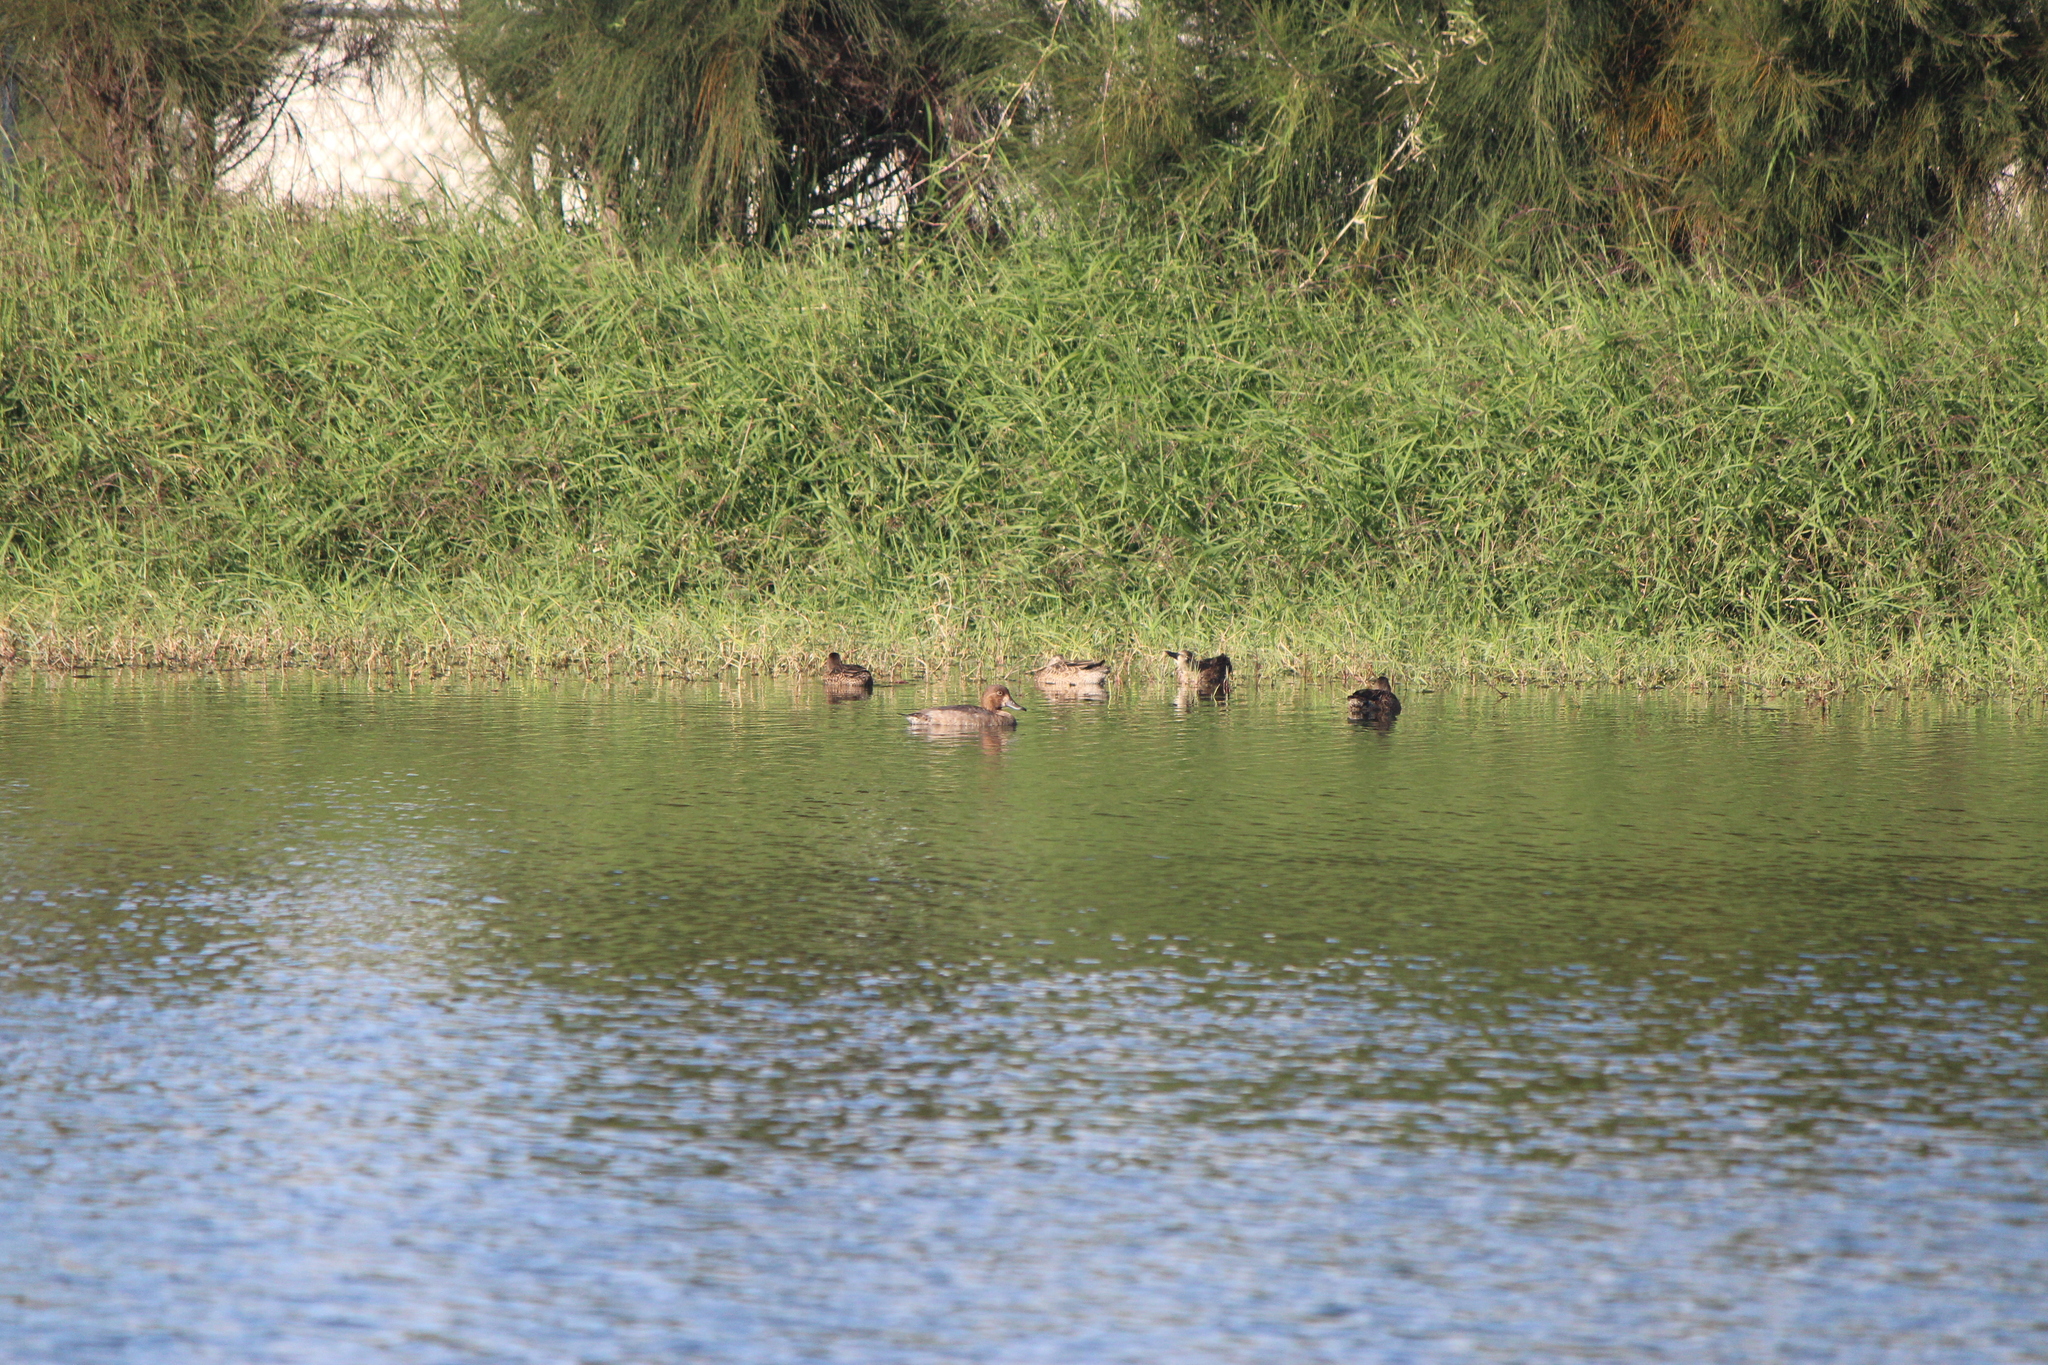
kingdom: Animalia
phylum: Chordata
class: Aves
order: Anseriformes
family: Anatidae
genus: Aythya
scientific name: Aythya americana
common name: Redhead
